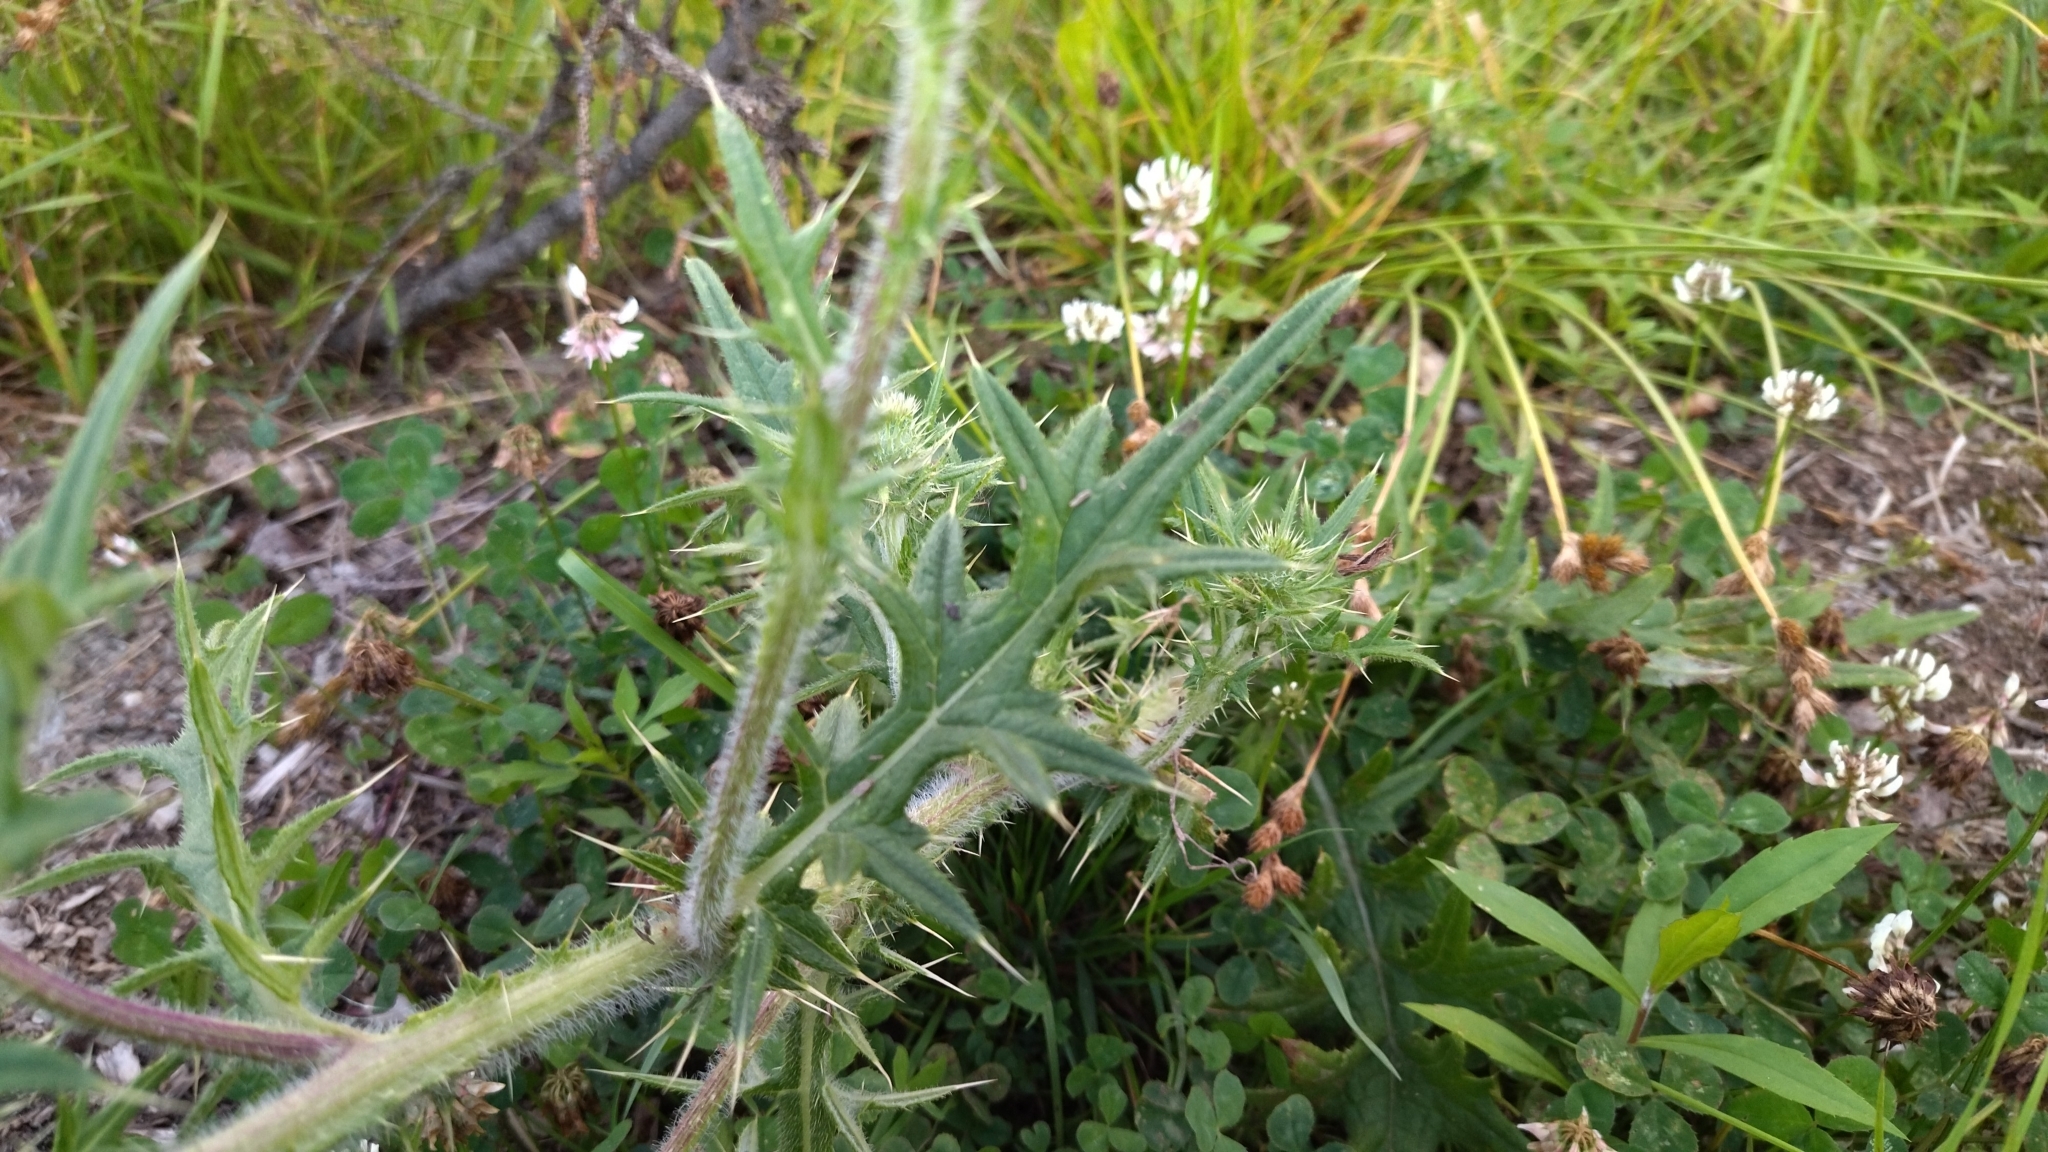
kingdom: Plantae
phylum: Tracheophyta
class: Magnoliopsida
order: Asterales
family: Asteraceae
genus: Cirsium
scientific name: Cirsium vulgare
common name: Bull thistle
